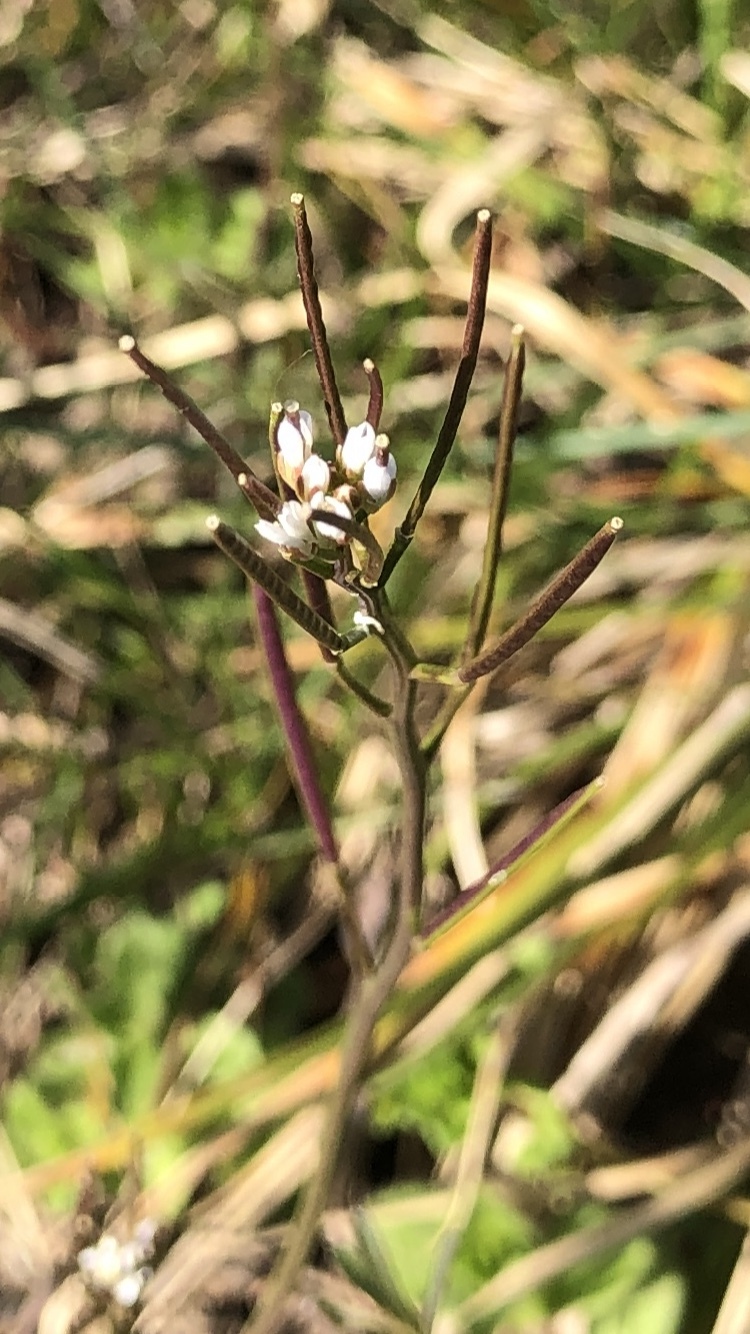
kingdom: Plantae
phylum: Tracheophyta
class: Magnoliopsida
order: Brassicales
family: Brassicaceae
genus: Cardamine
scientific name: Cardamine hirsuta
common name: Hairy bittercress
